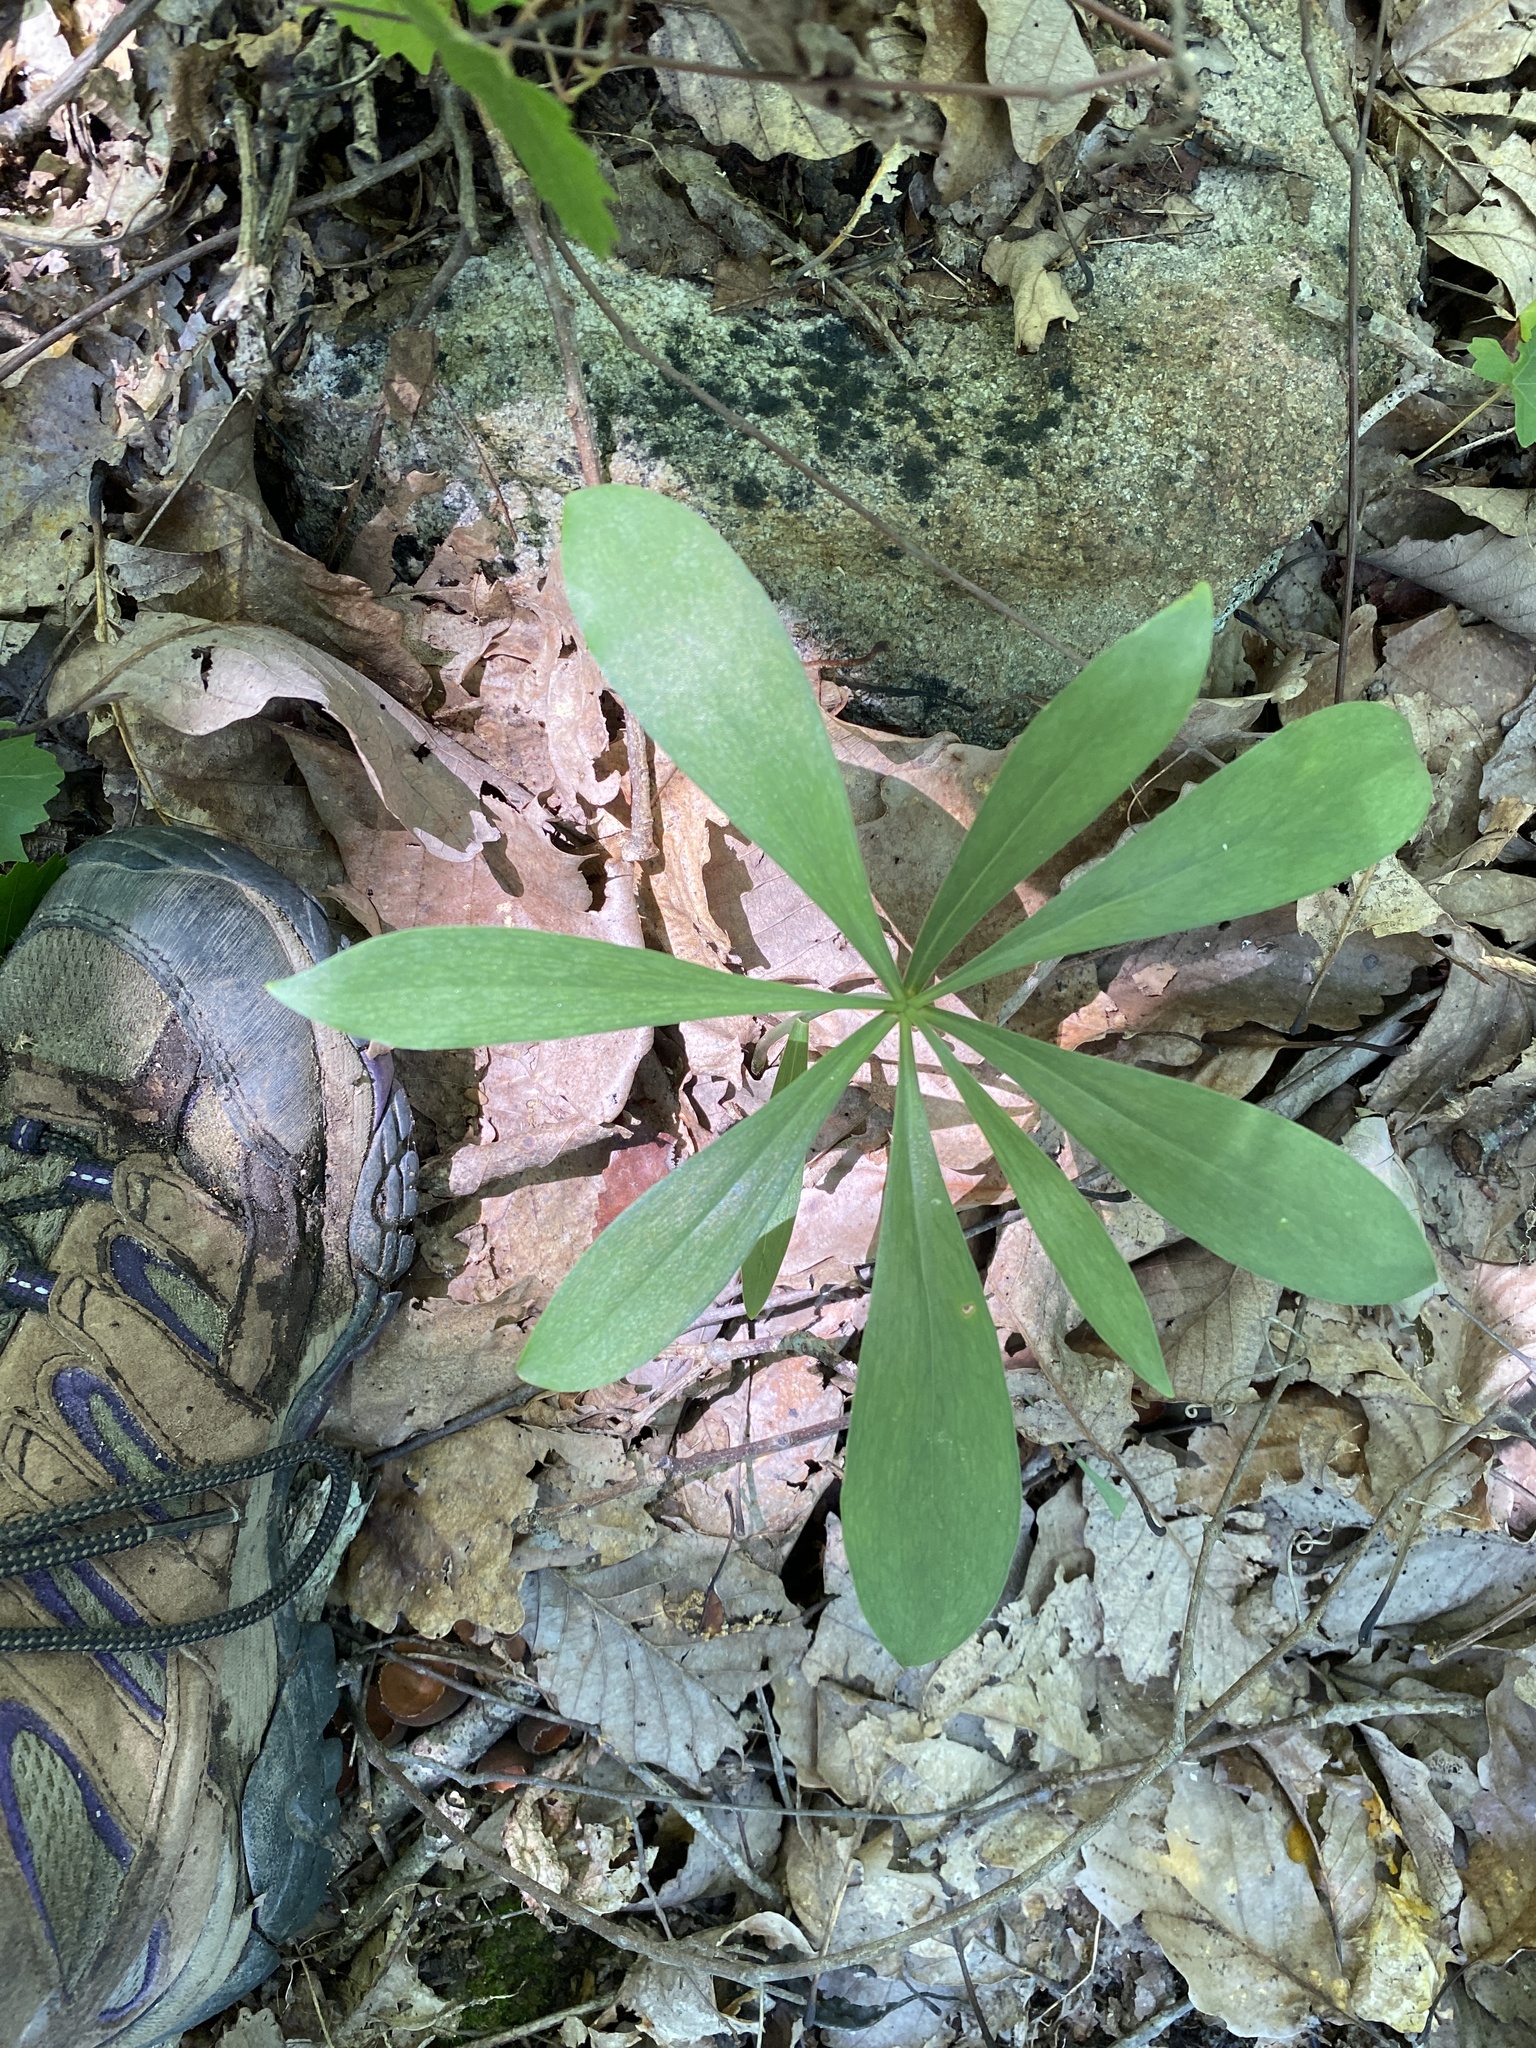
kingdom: Plantae
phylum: Tracheophyta
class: Liliopsida
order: Liliales
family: Liliaceae
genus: Lilium
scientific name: Lilium michauxii
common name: Carolina lily
